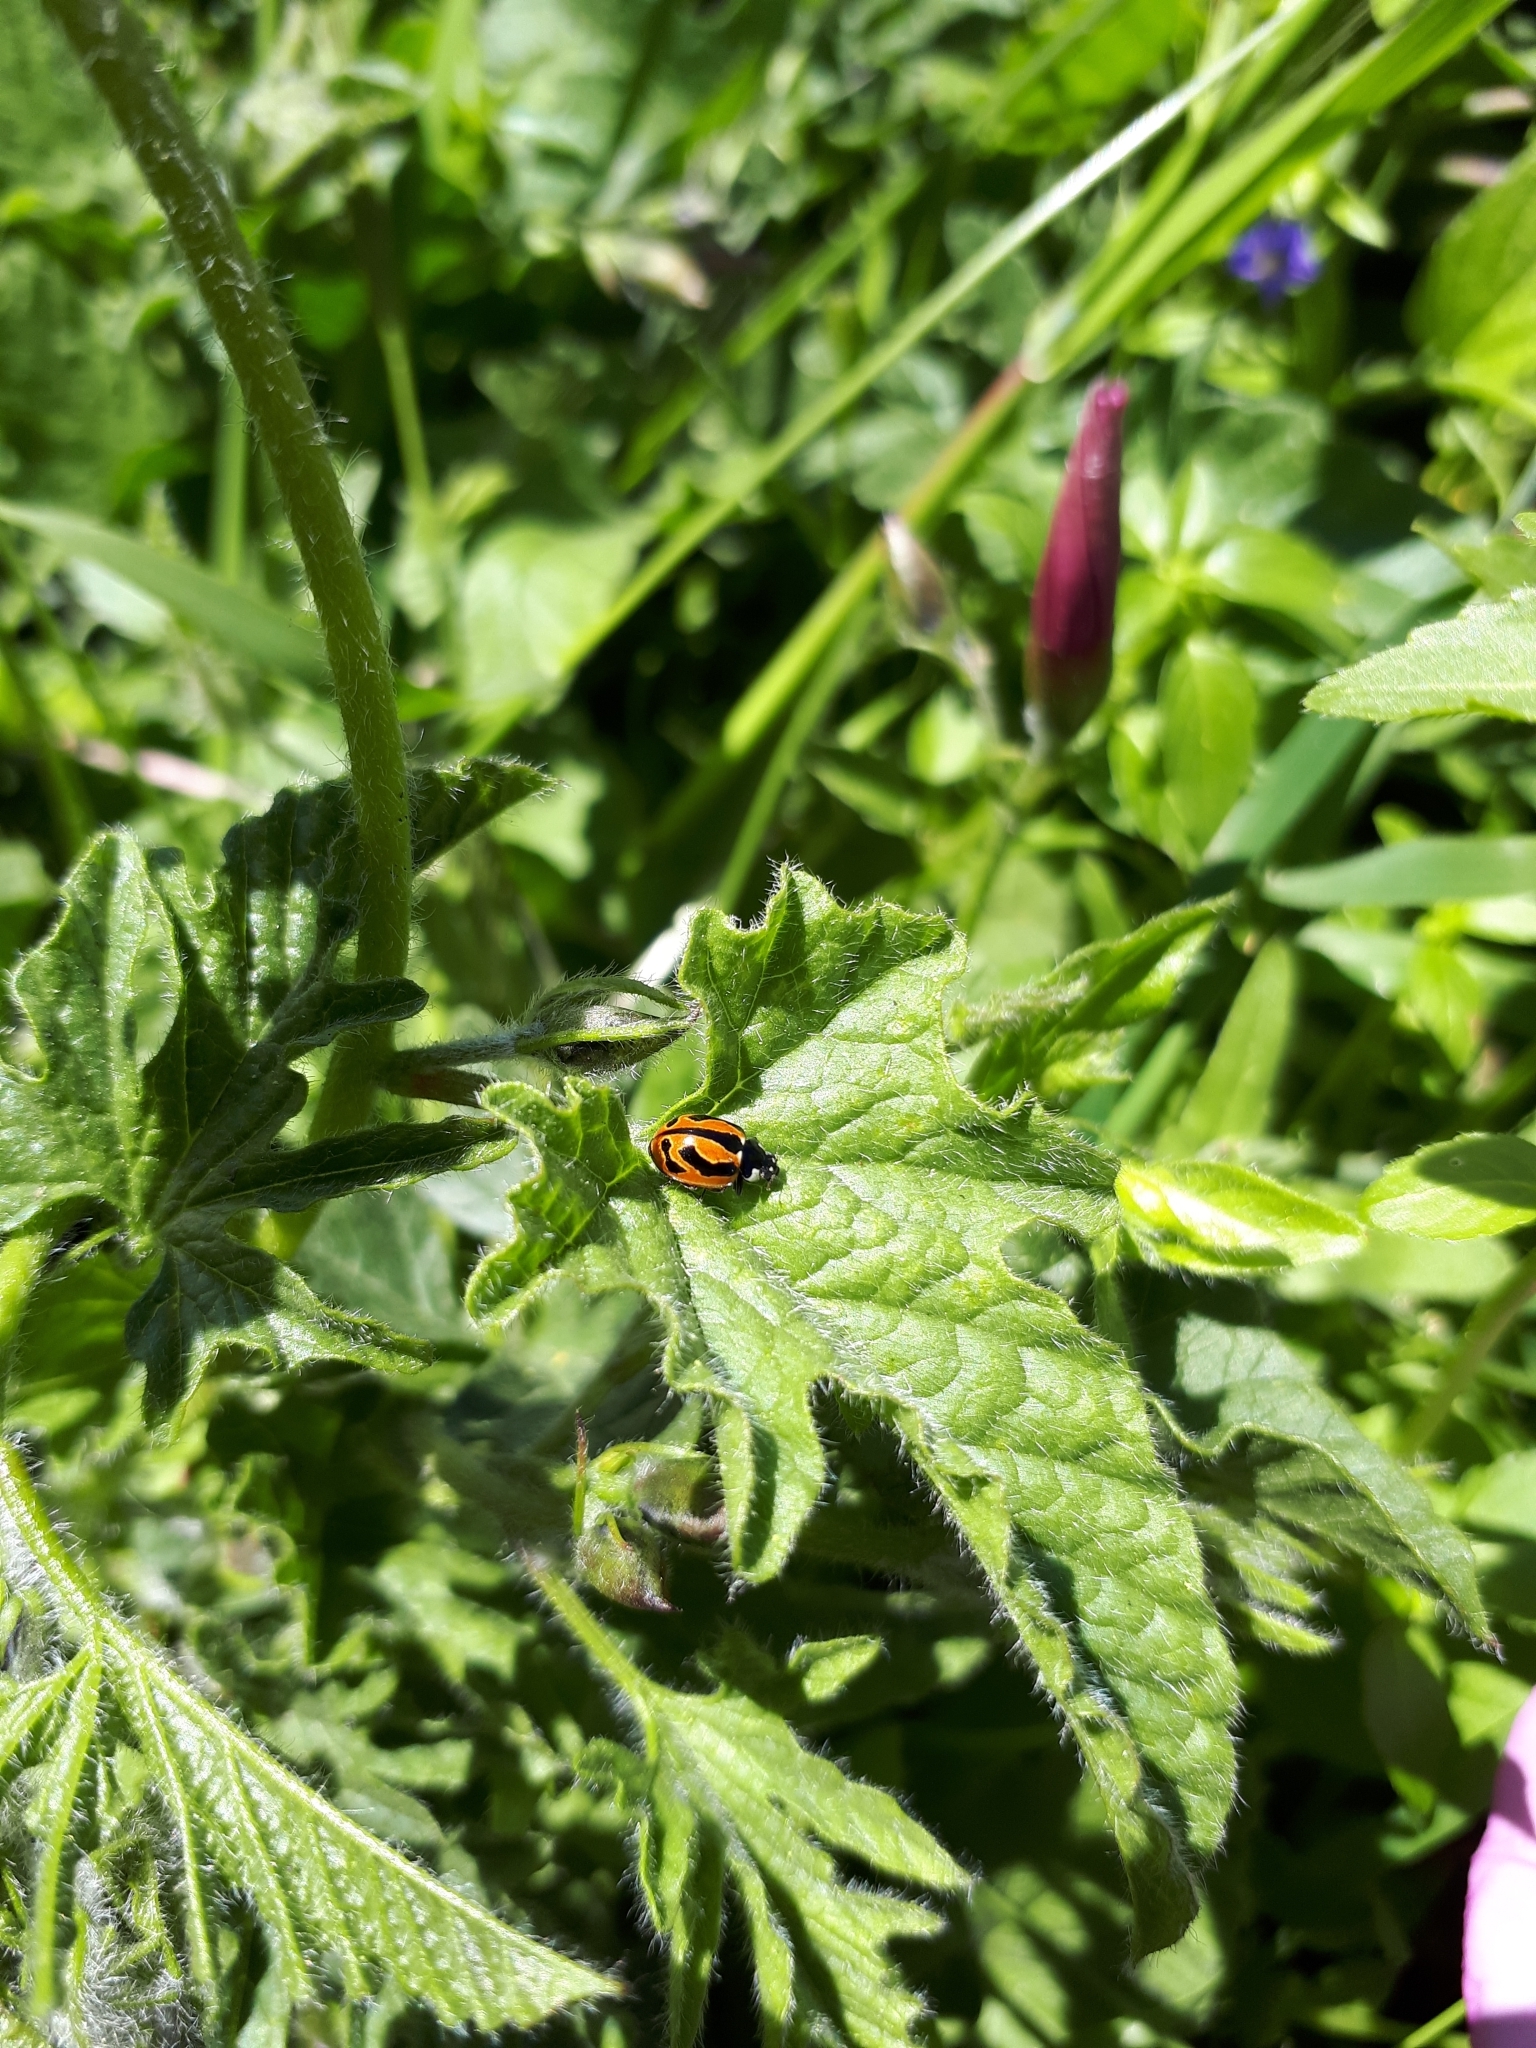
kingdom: Animalia
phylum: Arthropoda
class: Insecta
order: Coleoptera
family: Coccinellidae
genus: Coccinella
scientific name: Coccinella miranda
